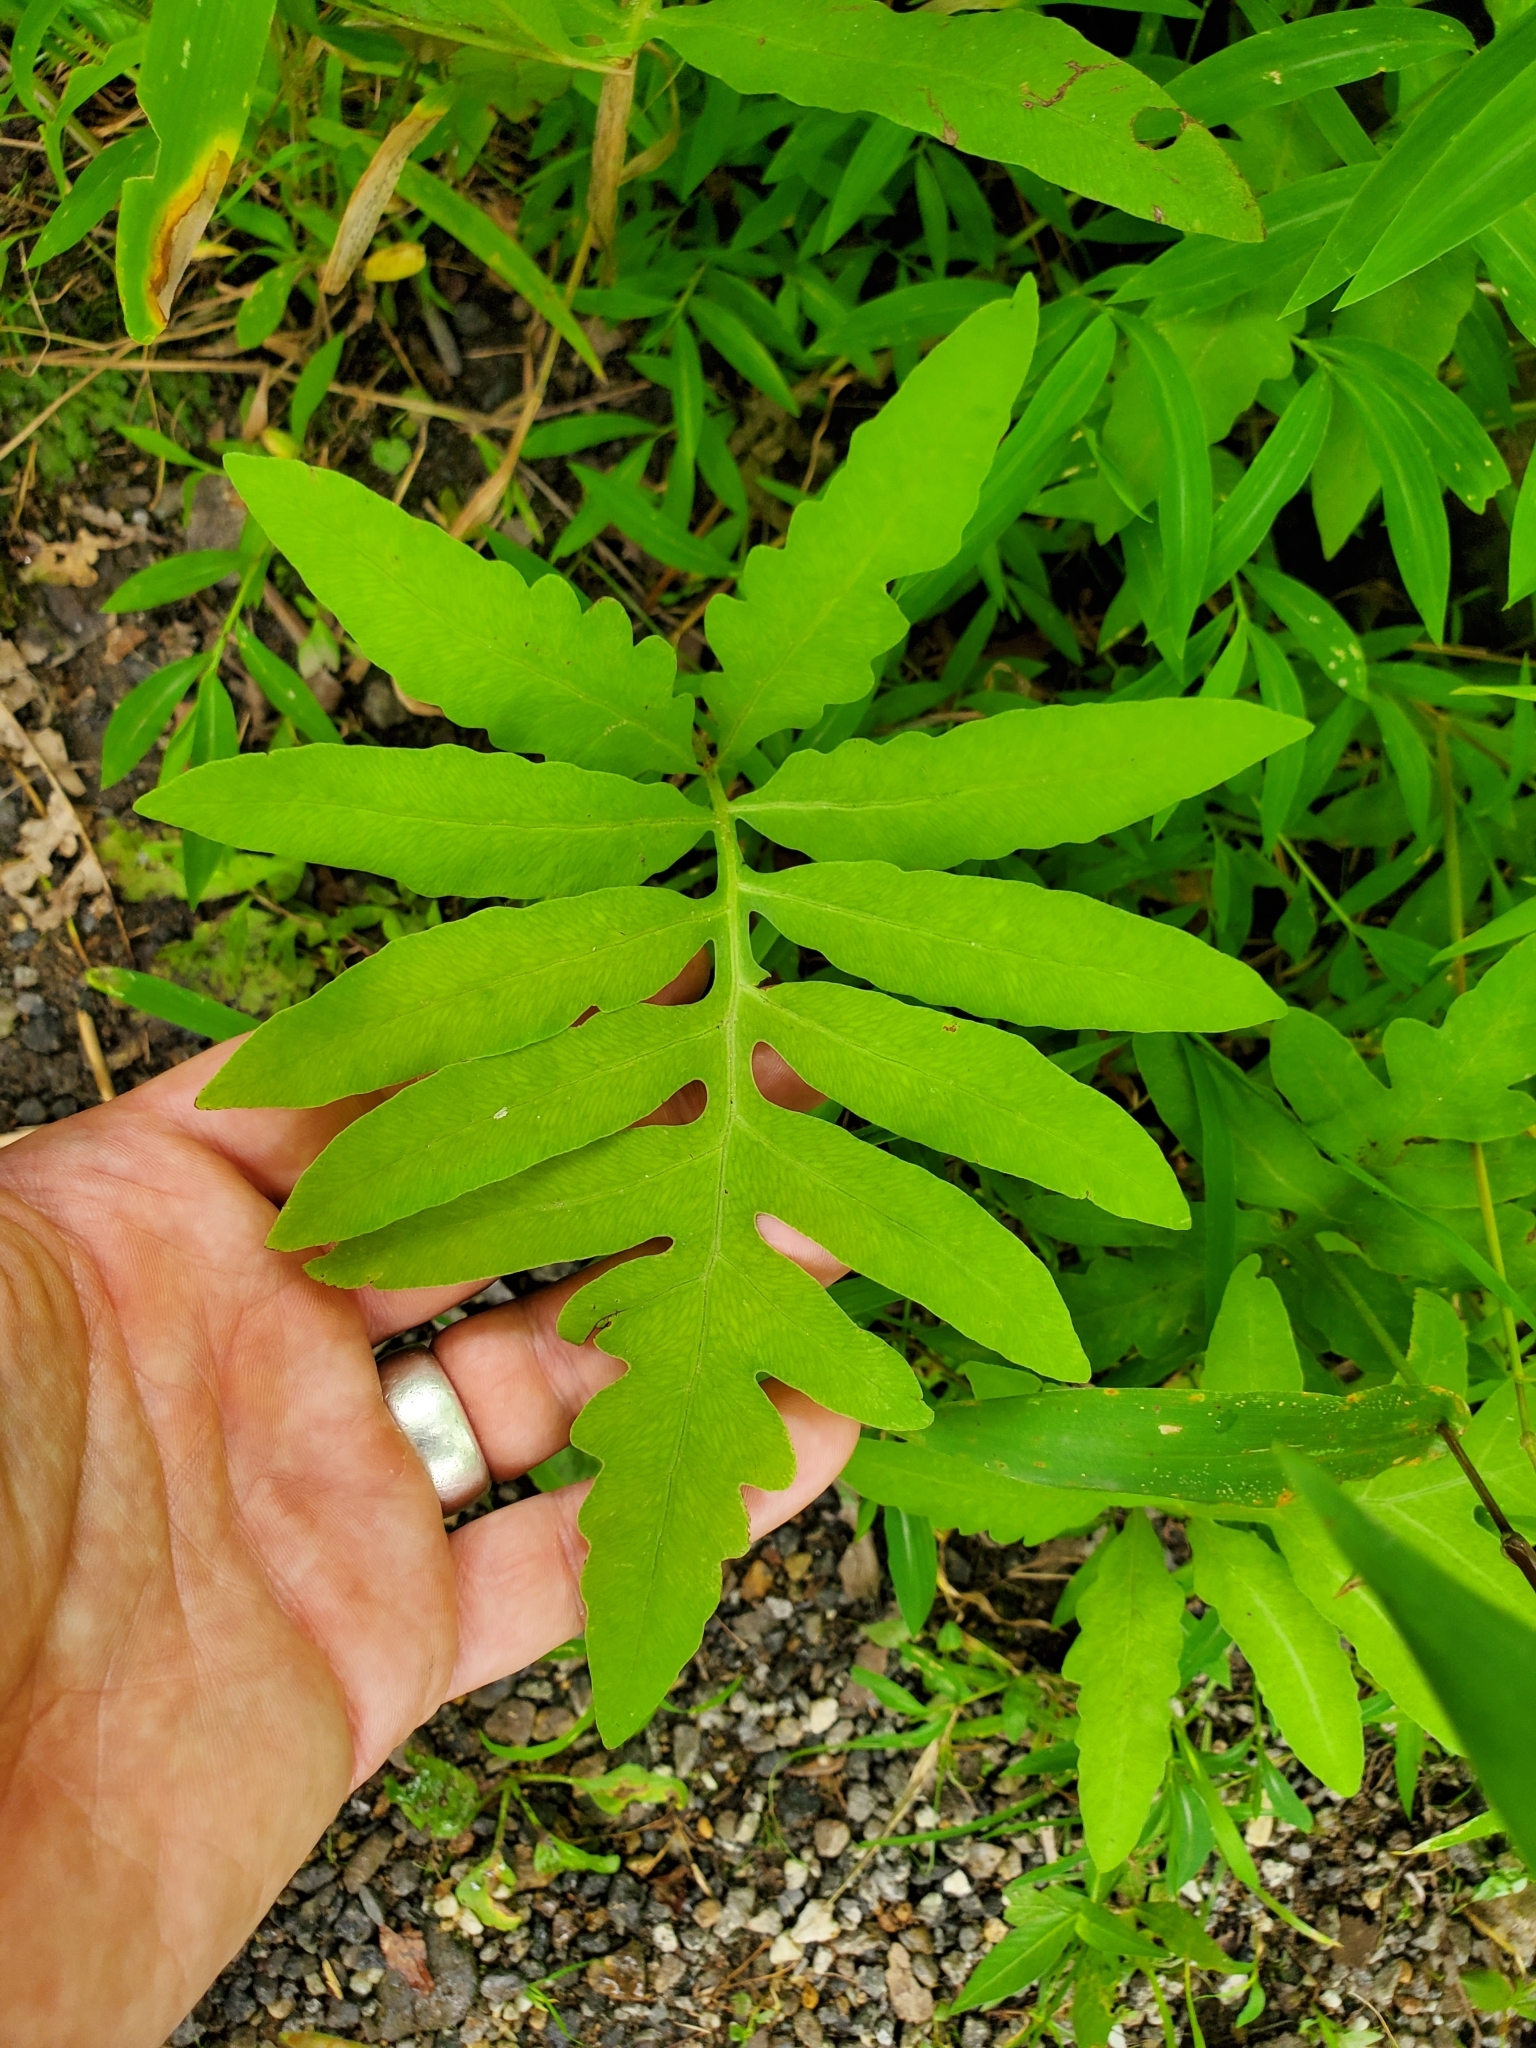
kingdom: Plantae
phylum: Tracheophyta
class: Polypodiopsida
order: Polypodiales
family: Onocleaceae
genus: Onoclea
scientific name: Onoclea sensibilis
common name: Sensitive fern
